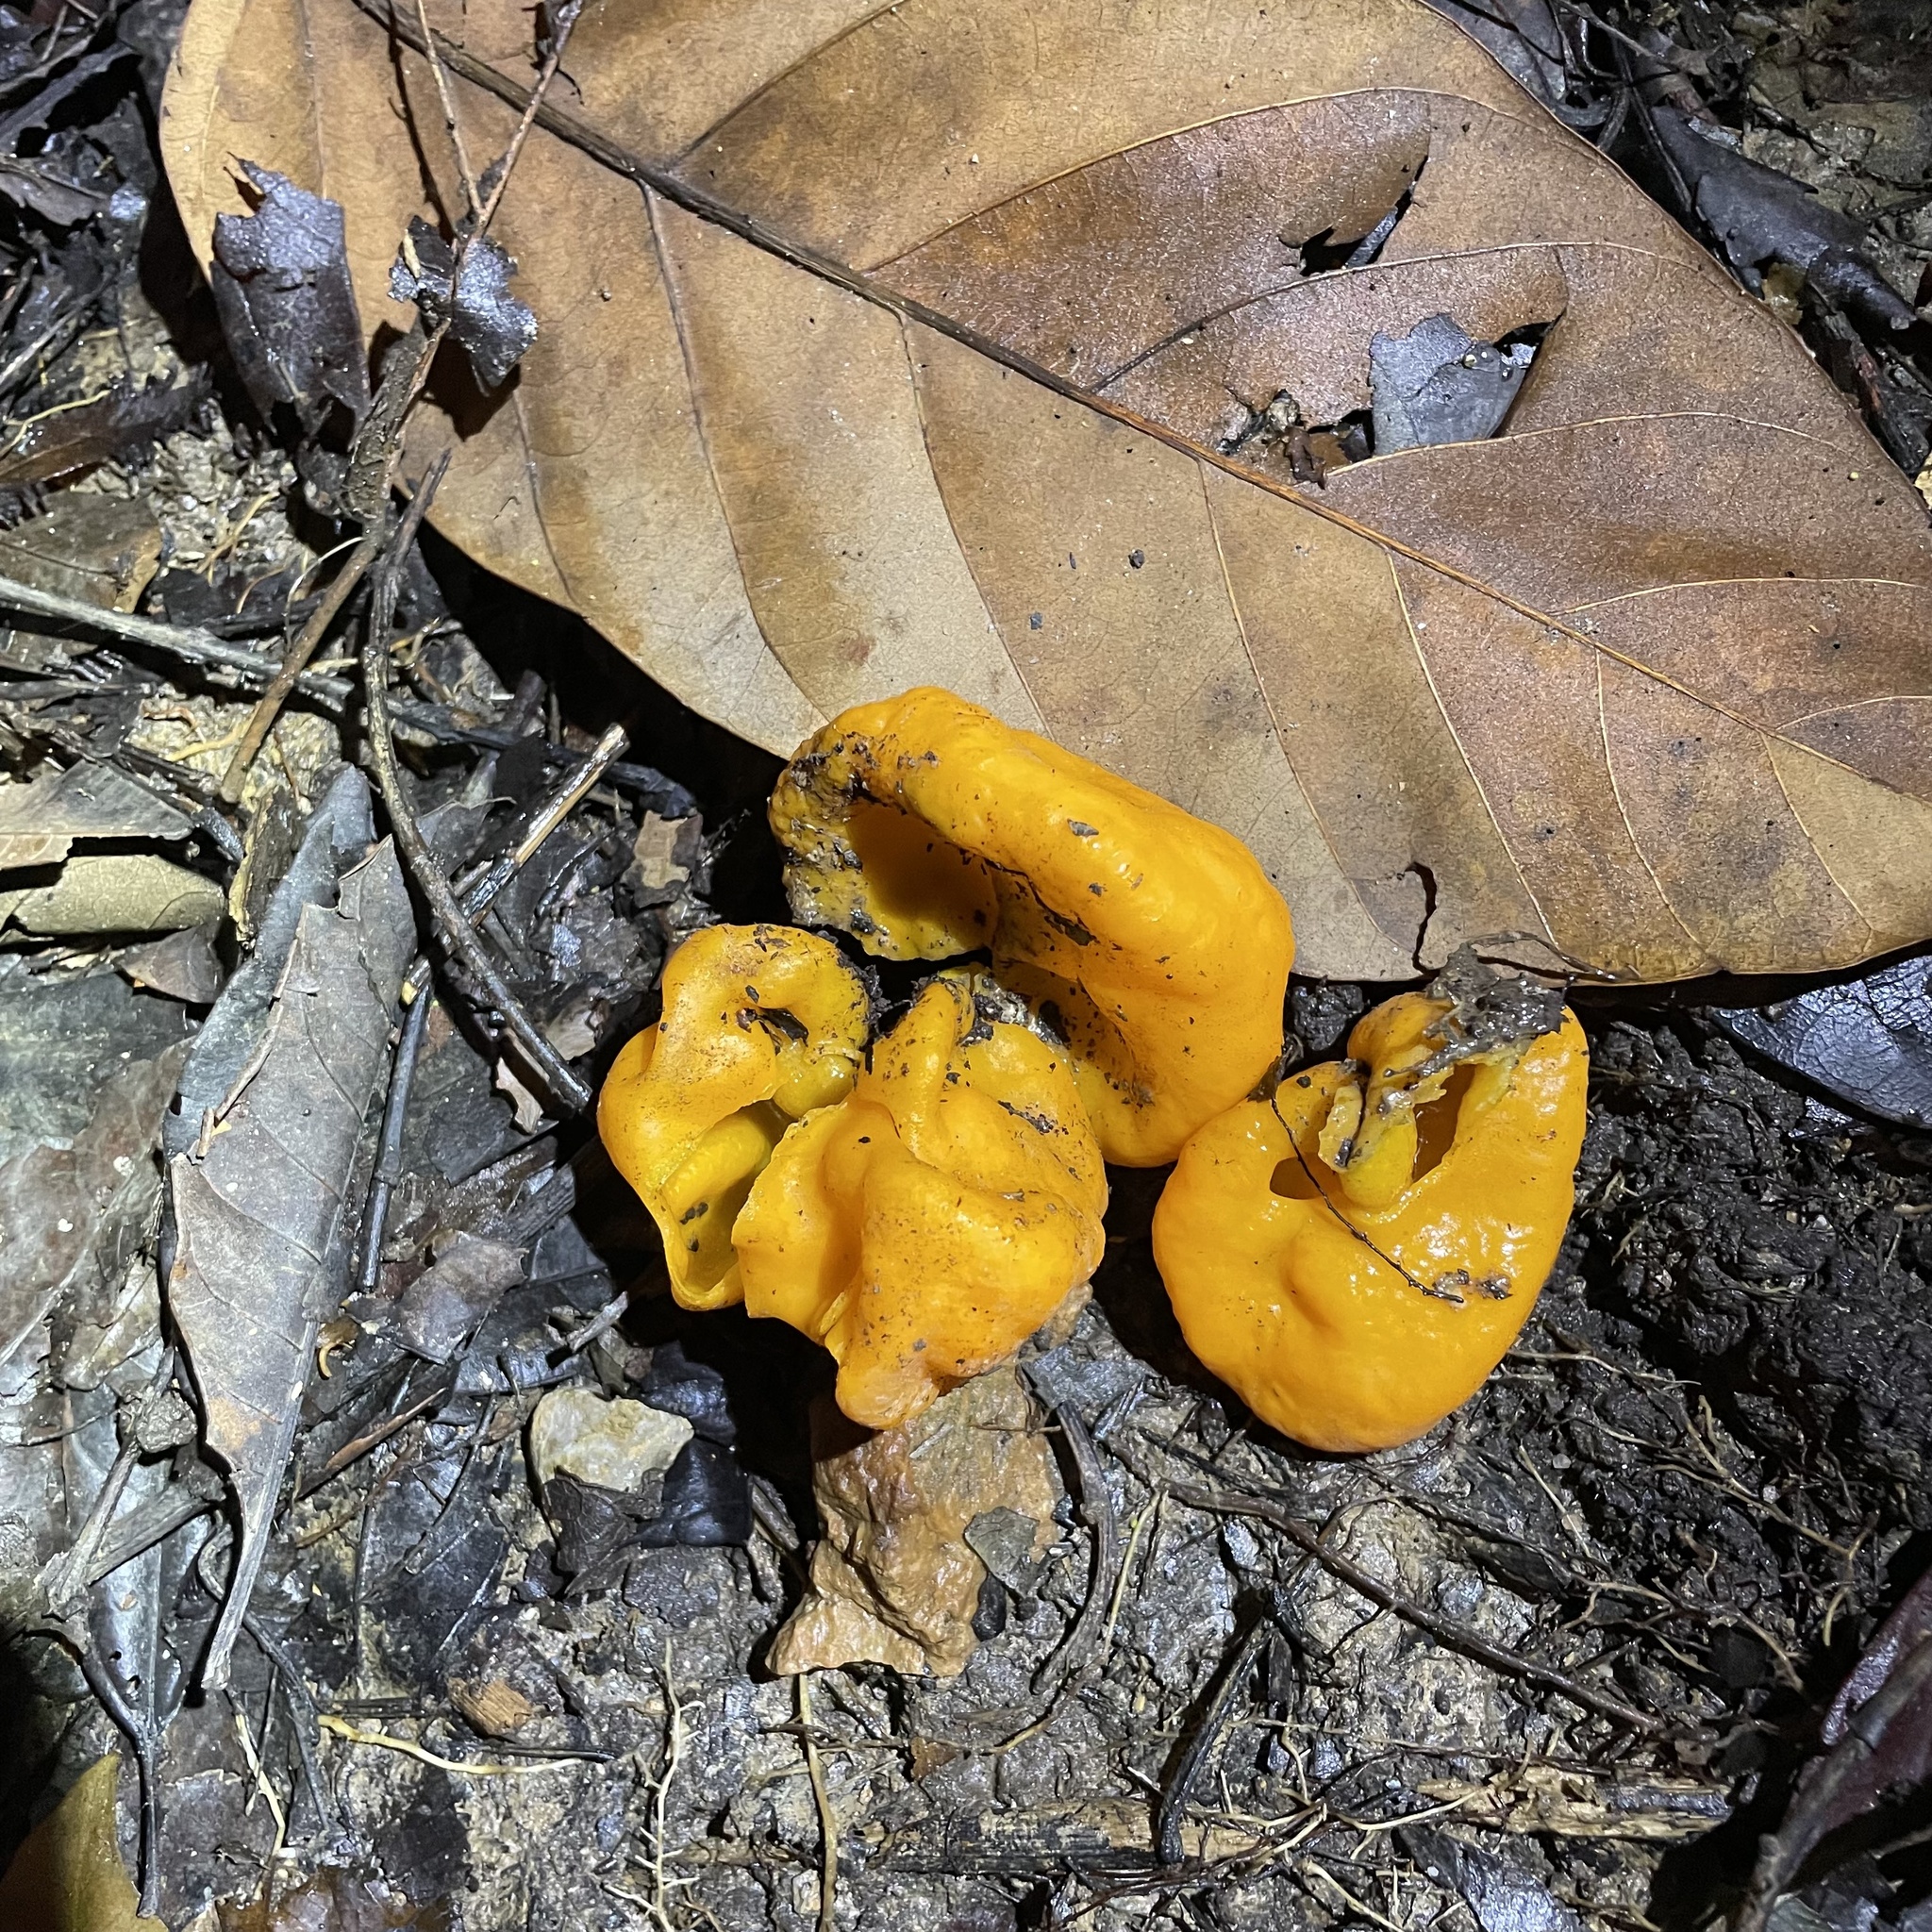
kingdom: Fungi
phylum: Ascomycota
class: Pezizomycetes
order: Pezizales
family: Glaziellaceae
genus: Glaziella
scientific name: Glaziella aurantiaca
